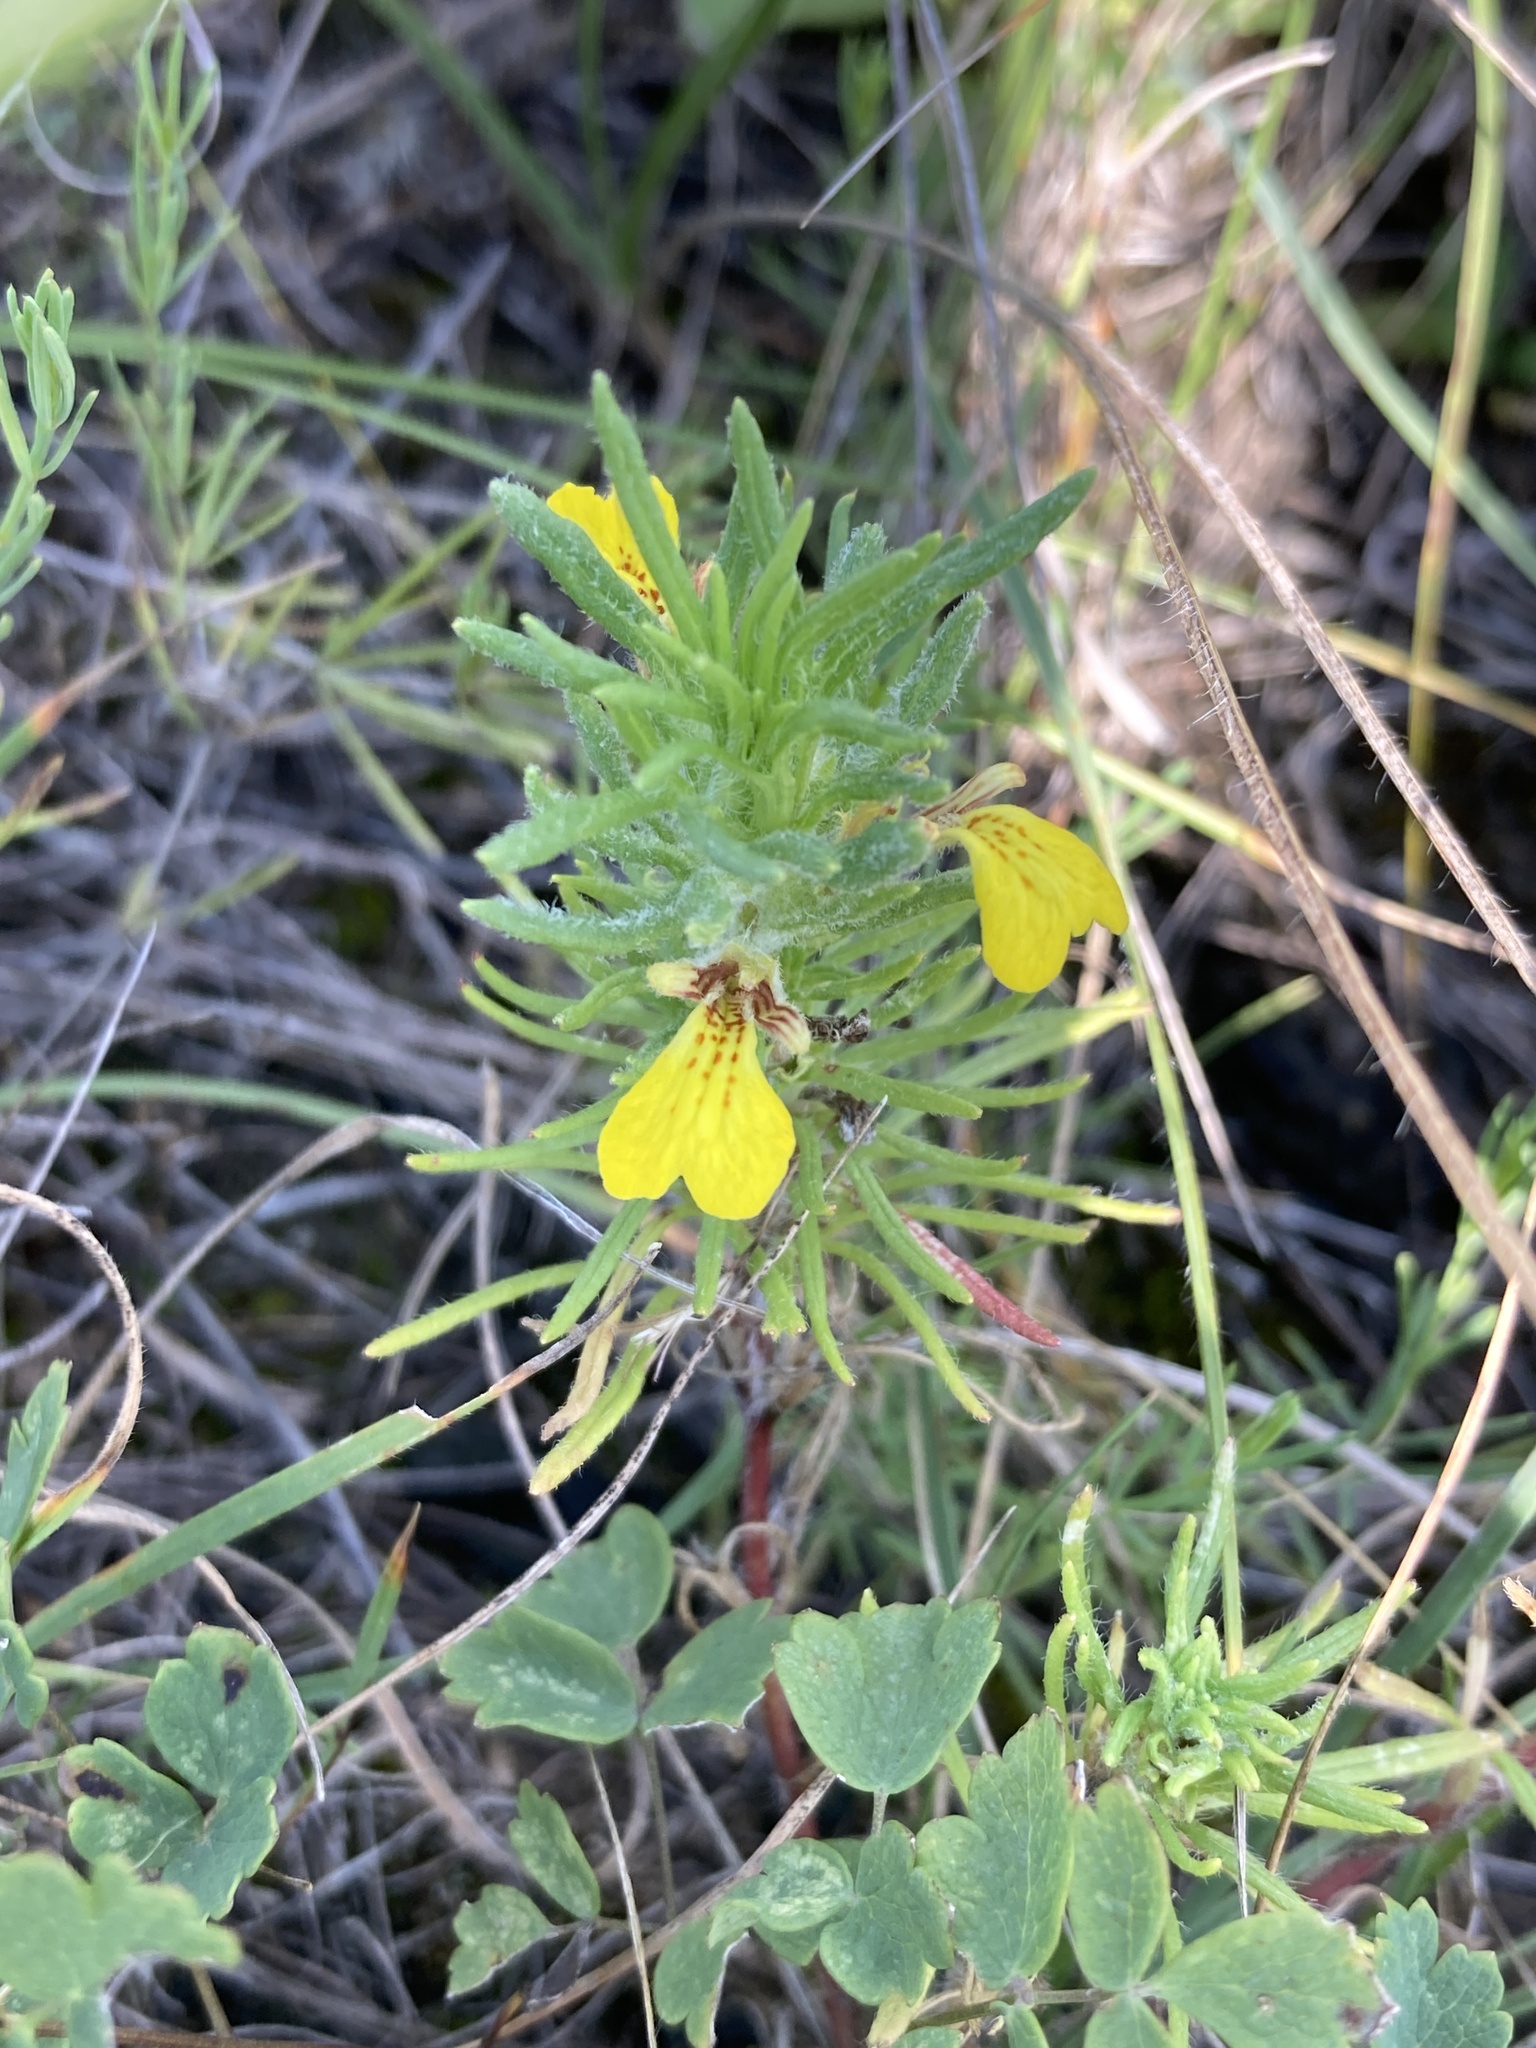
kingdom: Plantae
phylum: Tracheophyta
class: Magnoliopsida
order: Lamiales
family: Lamiaceae
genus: Ajuga
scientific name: Ajuga chamaepitys
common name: Ground-pine
